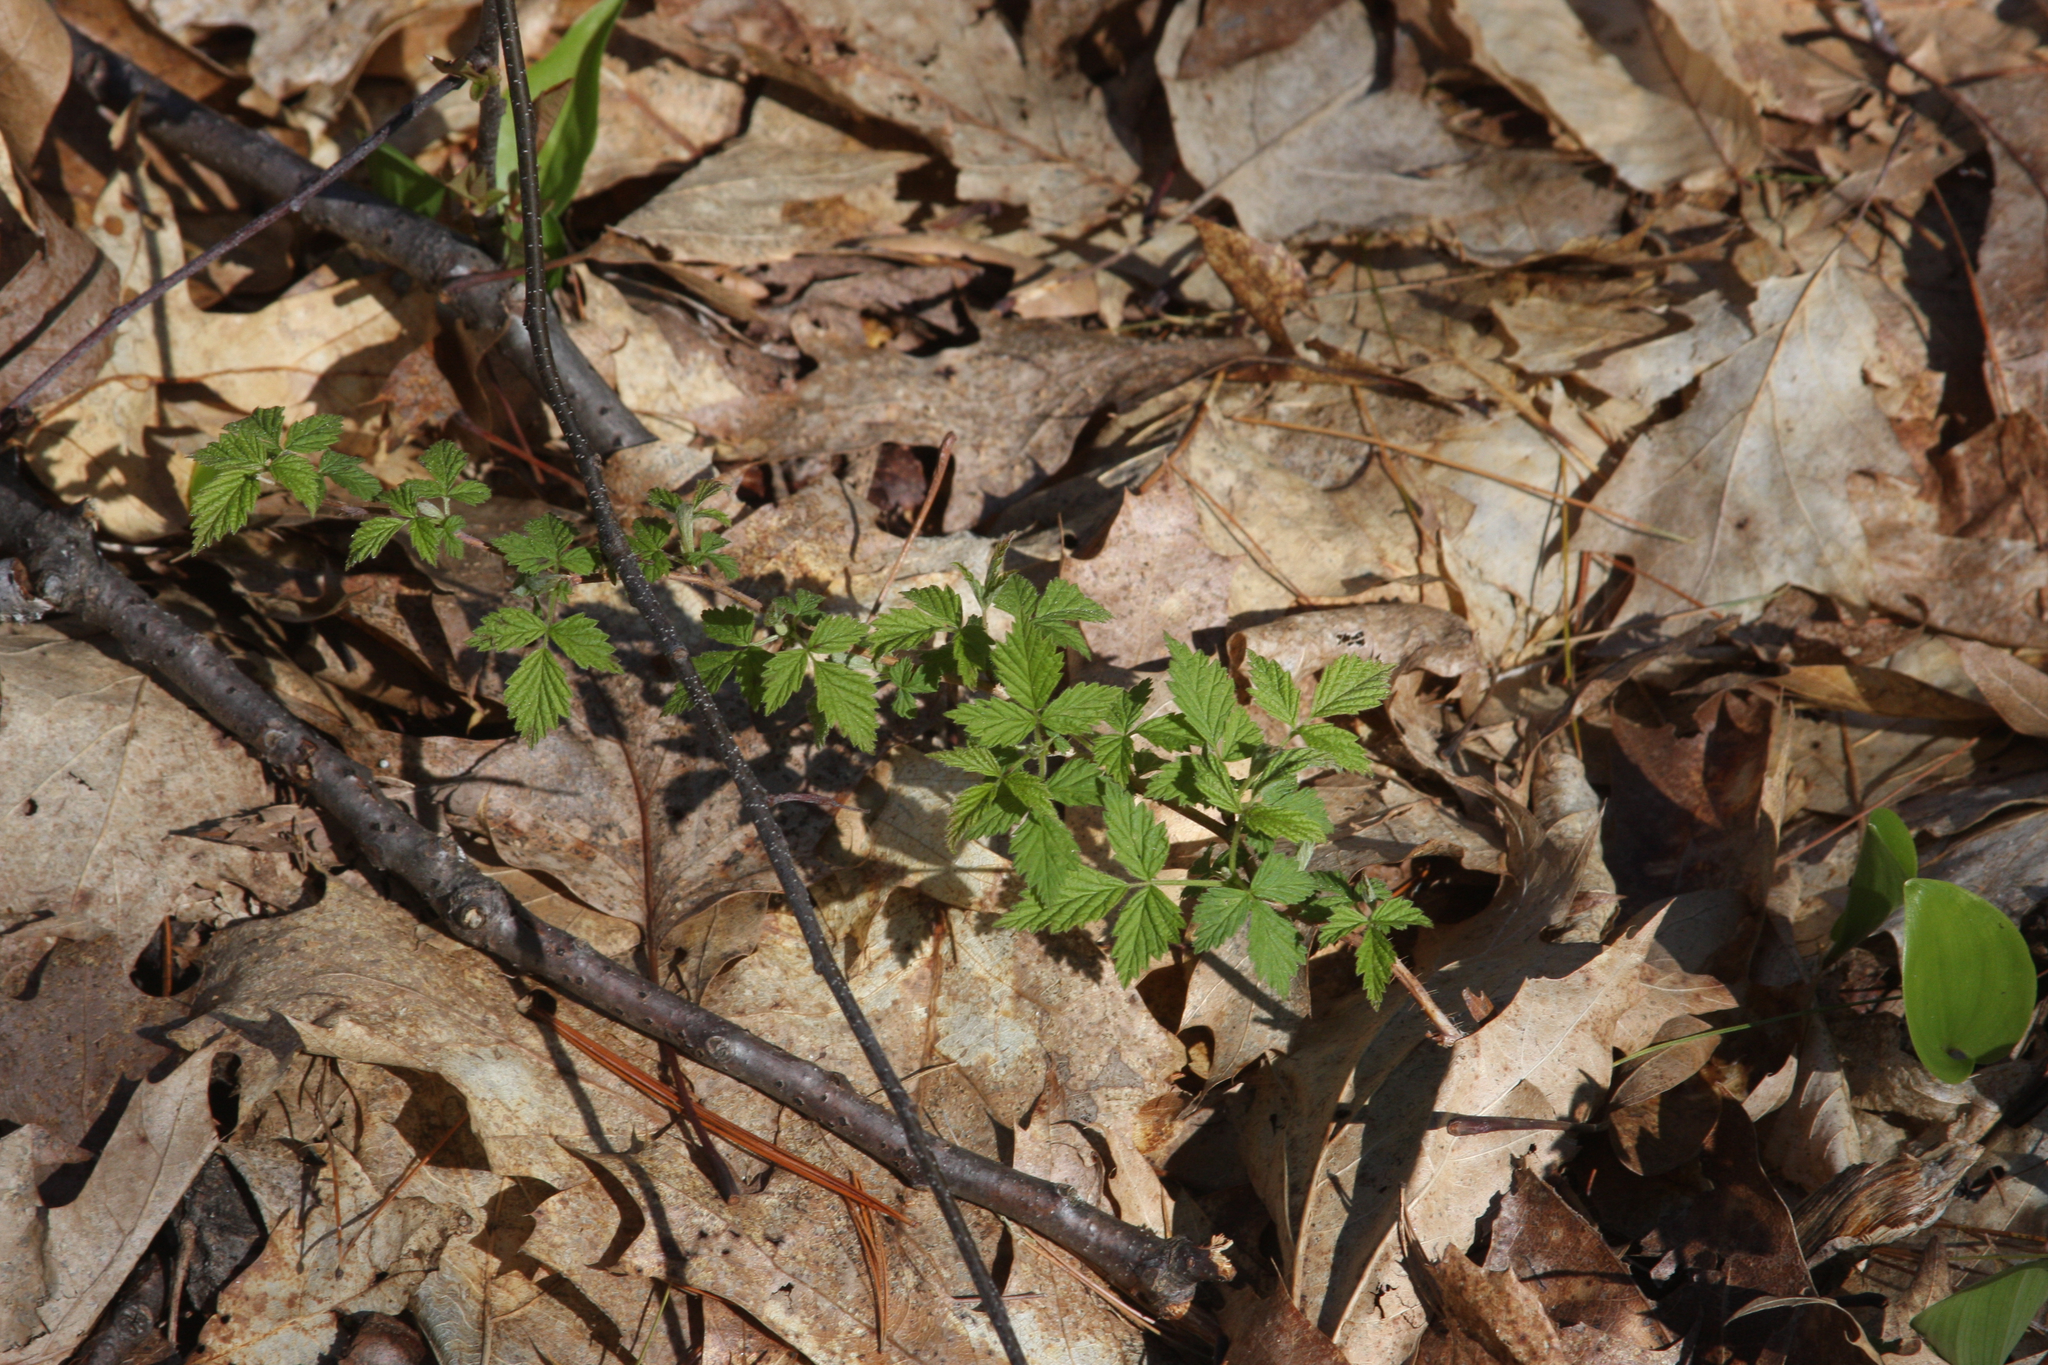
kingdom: Plantae
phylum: Tracheophyta
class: Liliopsida
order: Asparagales
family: Asparagaceae
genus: Maianthemum
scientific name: Maianthemum canadense
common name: False lily-of-the-valley
